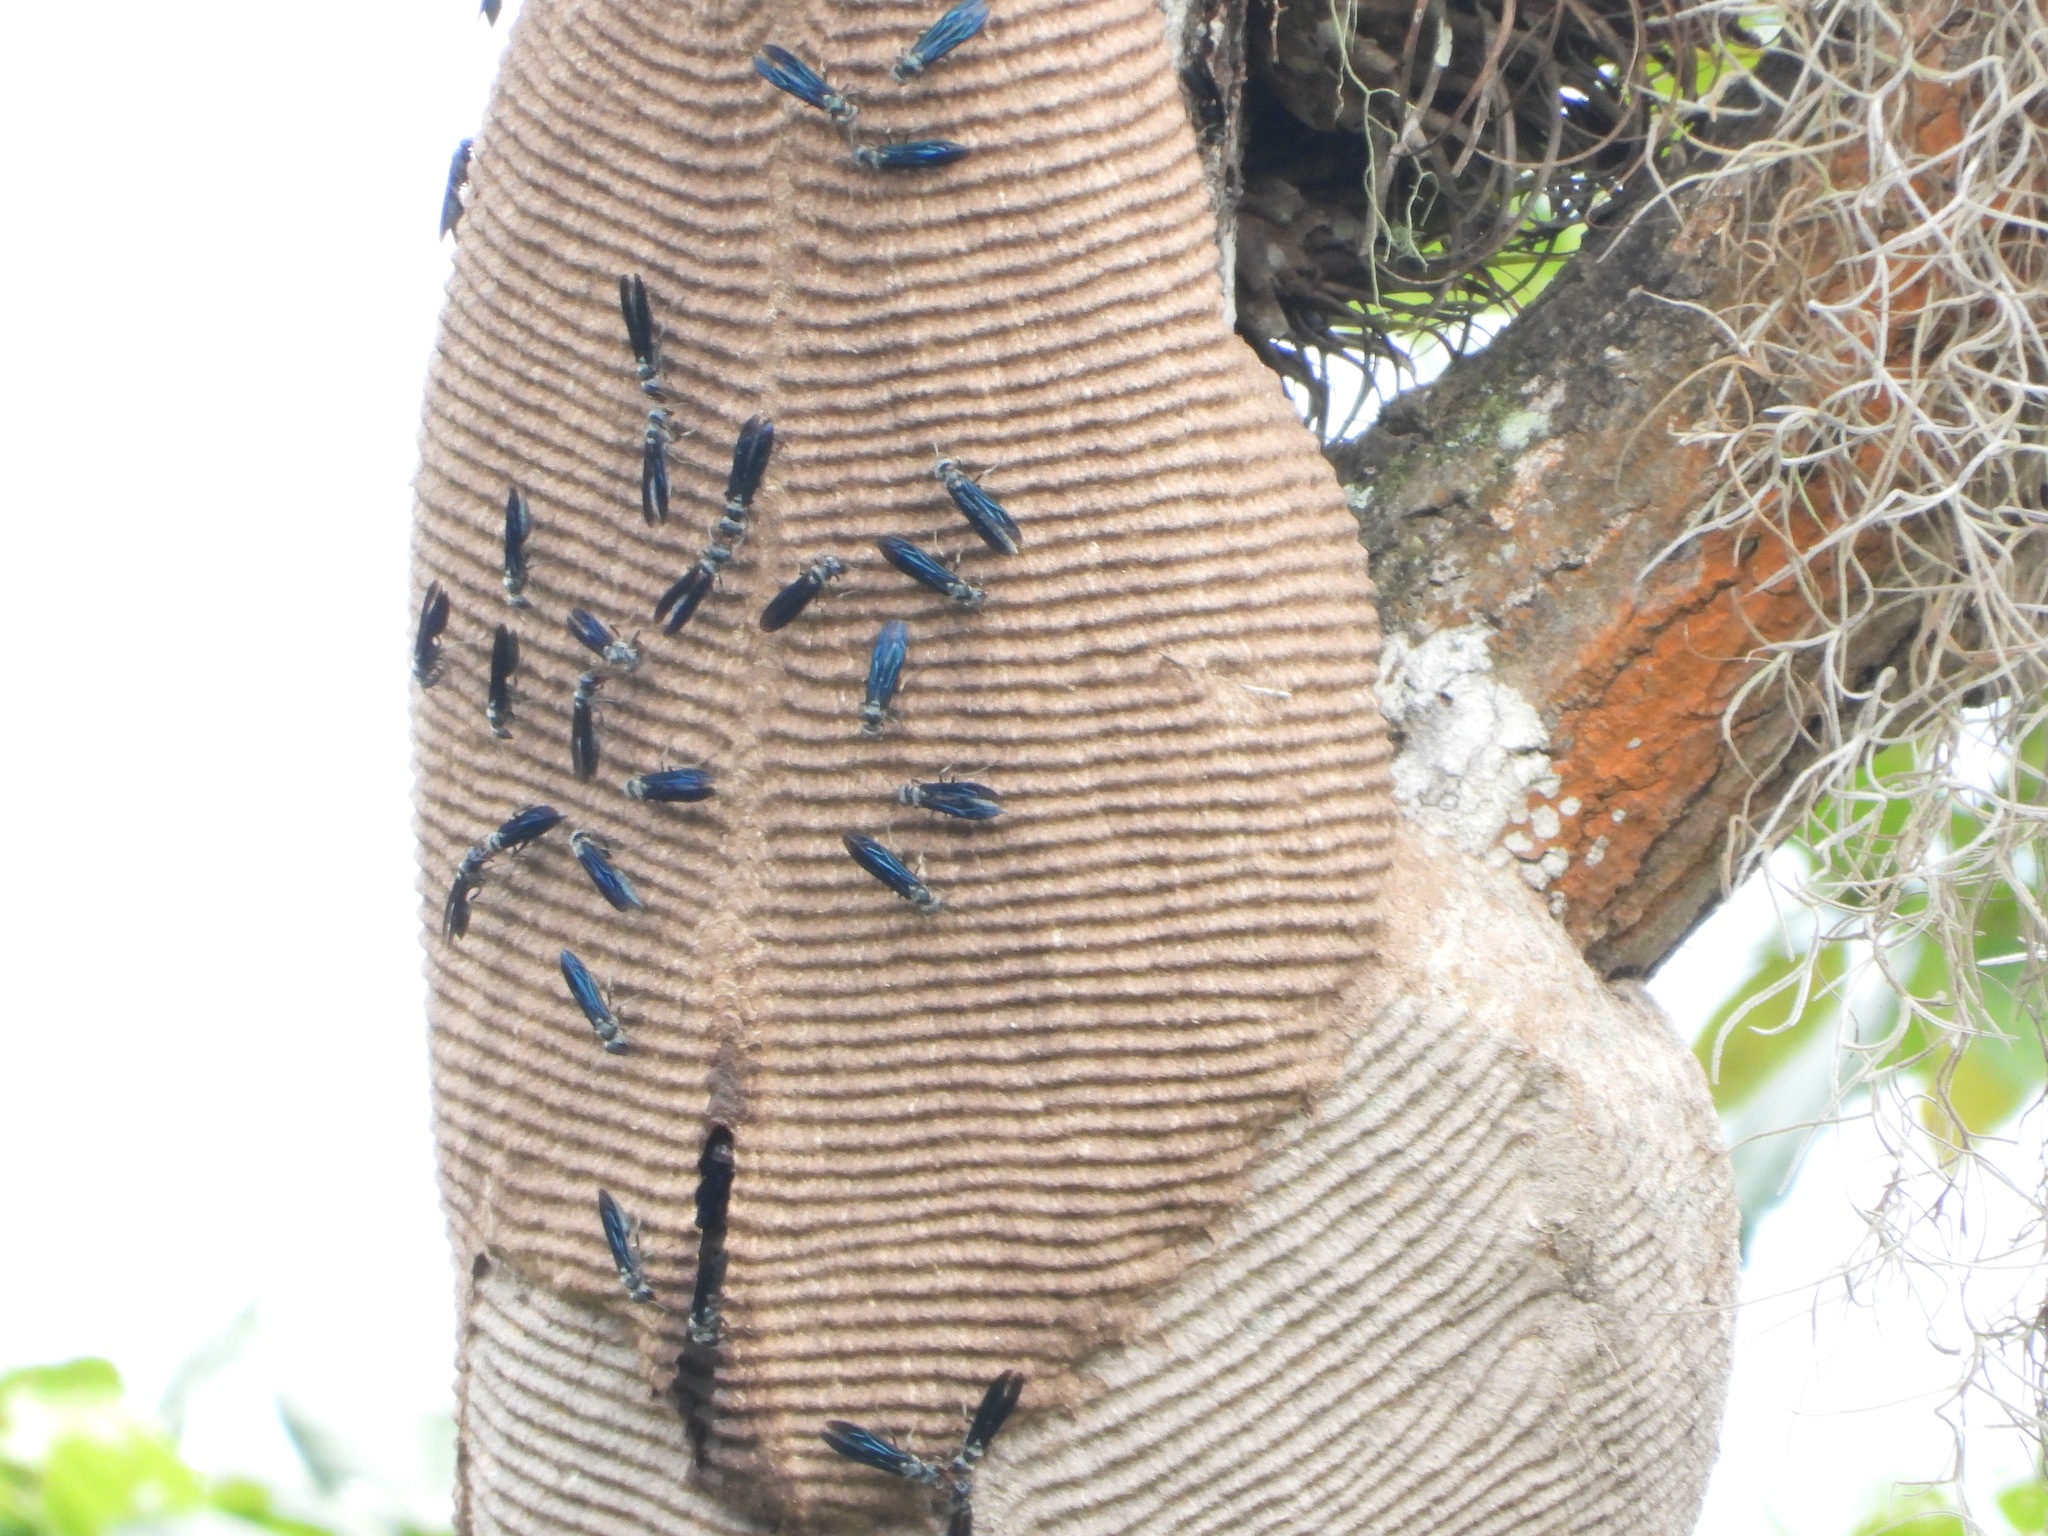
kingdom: Animalia
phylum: Arthropoda
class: Insecta
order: Hymenoptera
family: Vespidae
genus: Synoeca
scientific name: Synoeca septentrionalis
